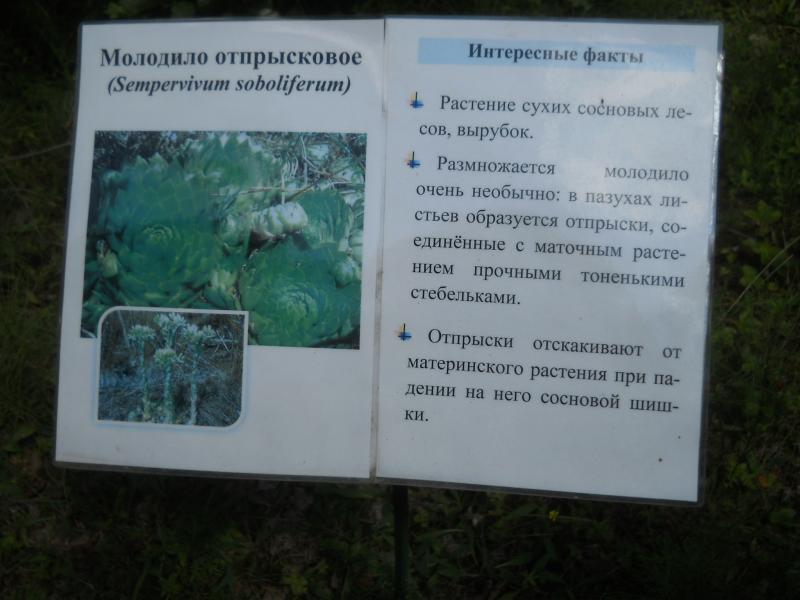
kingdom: Plantae
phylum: Tracheophyta
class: Magnoliopsida
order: Saxifragales
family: Crassulaceae
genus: Sempervivum
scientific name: Sempervivum globiferum
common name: Rolling hen-and-chicks
